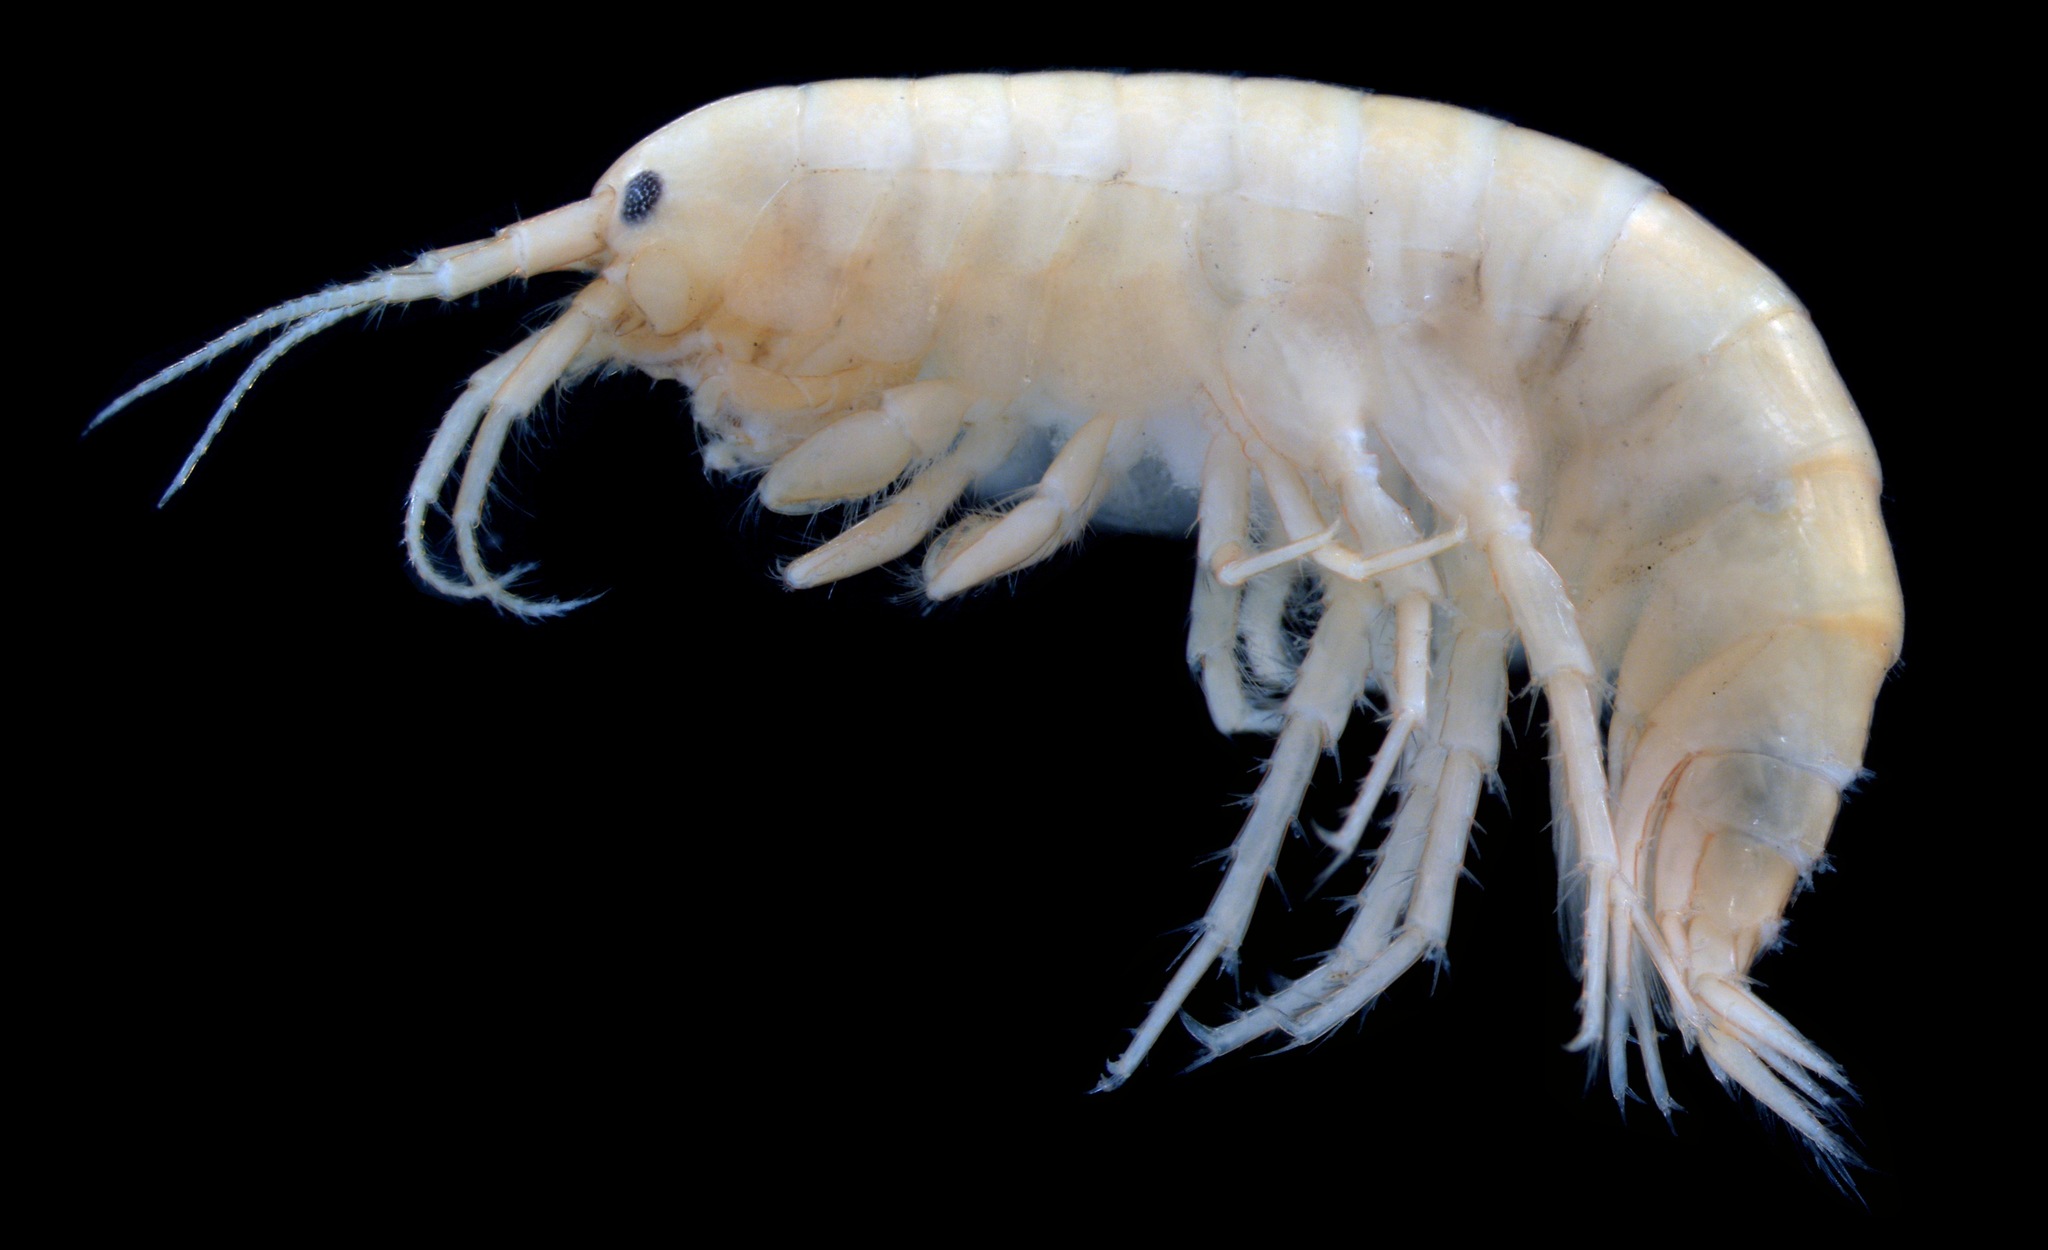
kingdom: Animalia
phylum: Arthropoda
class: Malacostraca
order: Amphipoda
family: Gammaridae
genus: Gammarus
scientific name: Gammarus langi
